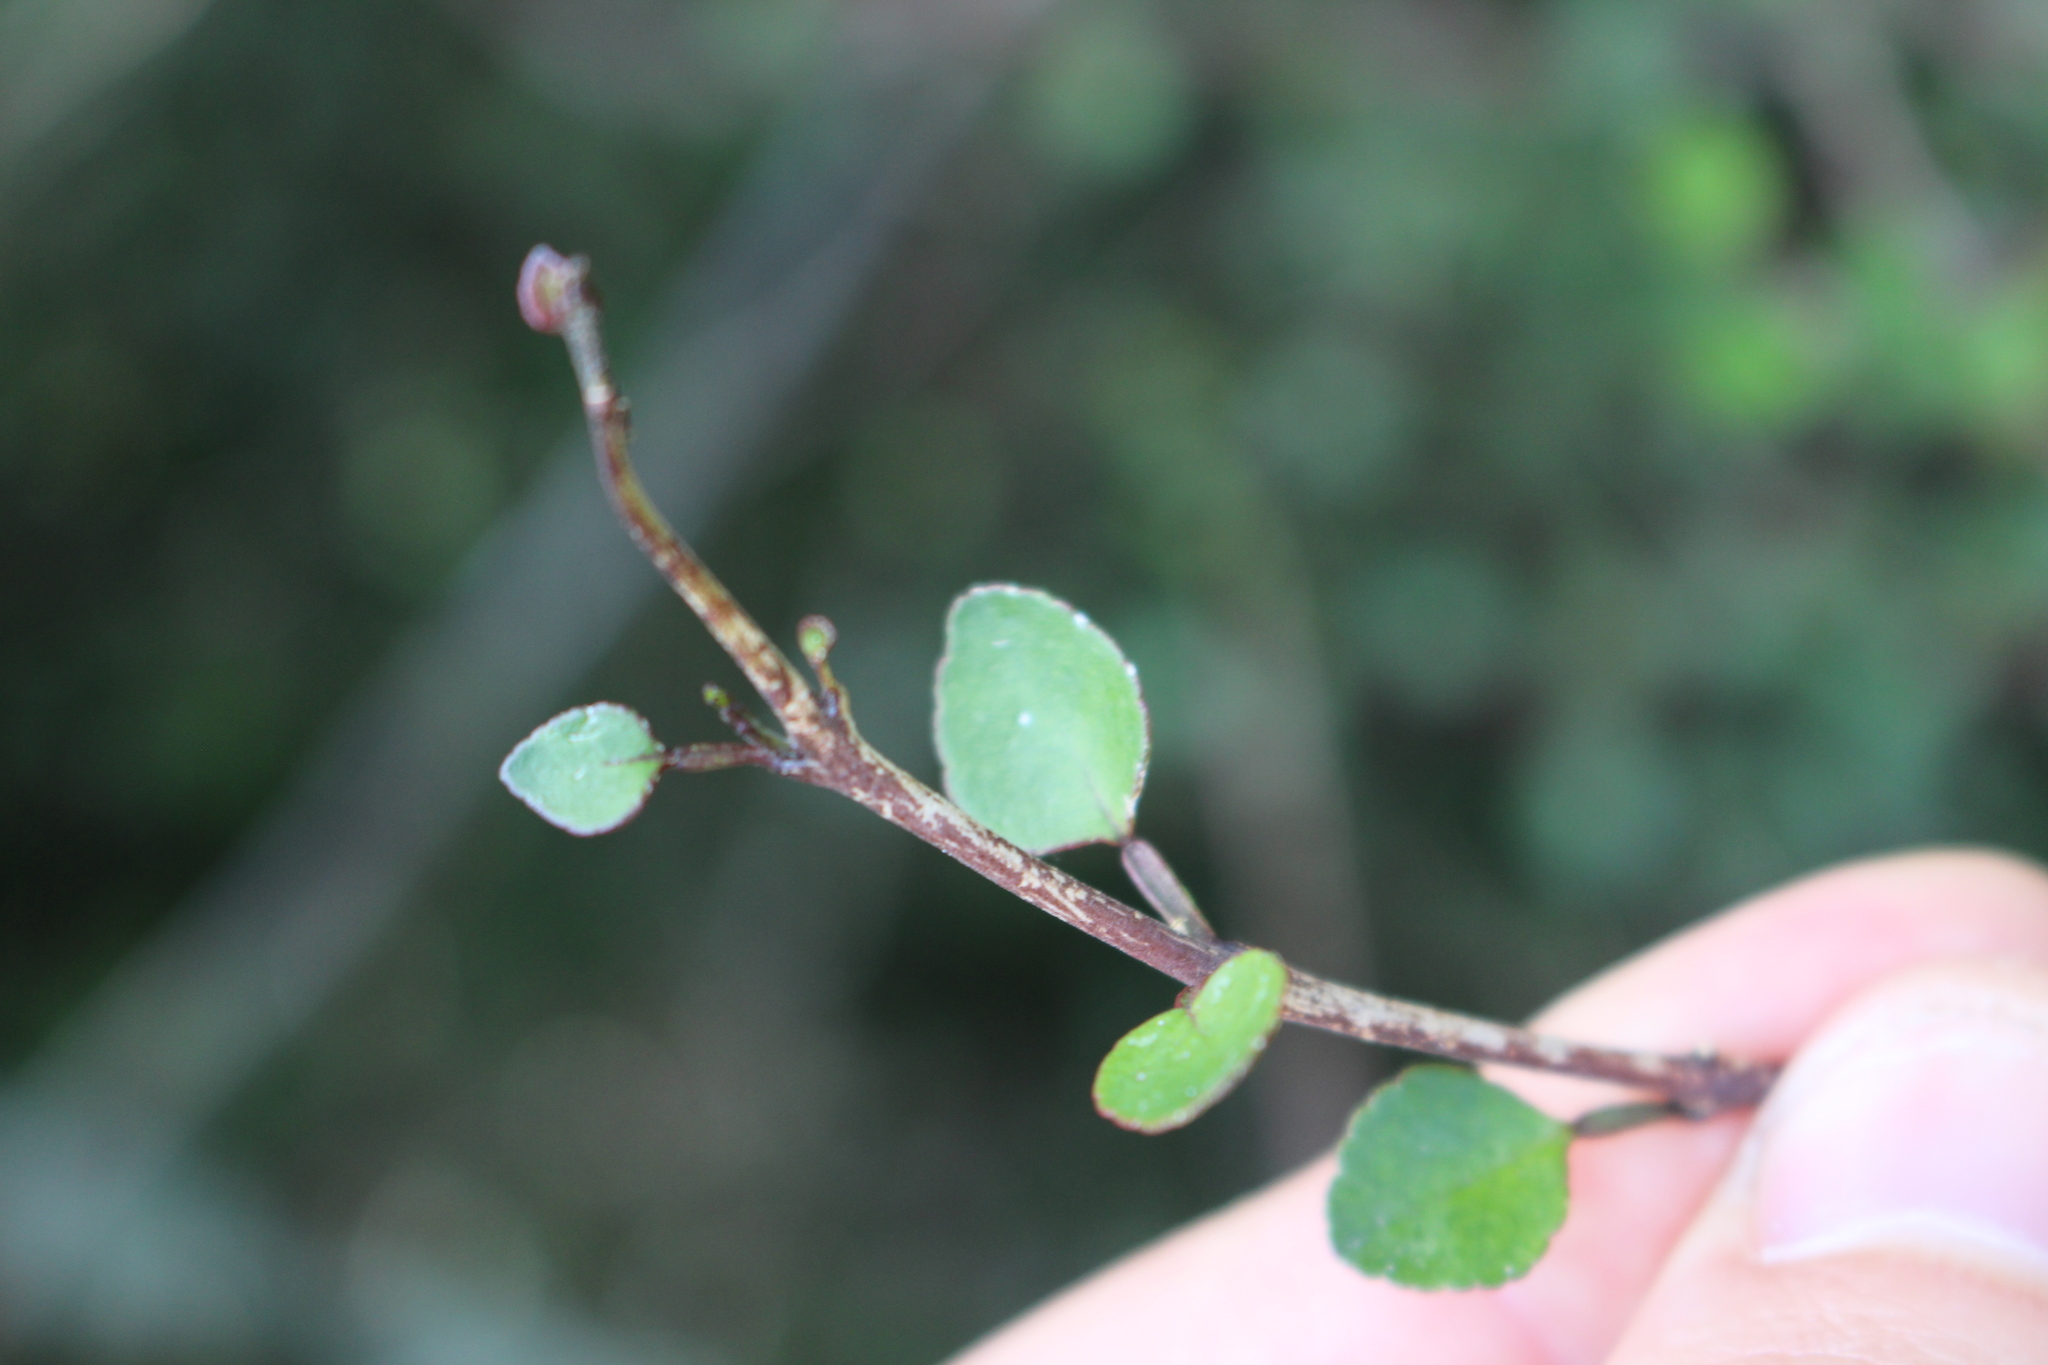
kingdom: Plantae
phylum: Tracheophyta
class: Magnoliopsida
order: Sapindales
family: Rutaceae
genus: Melicope
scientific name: Melicope simplex
